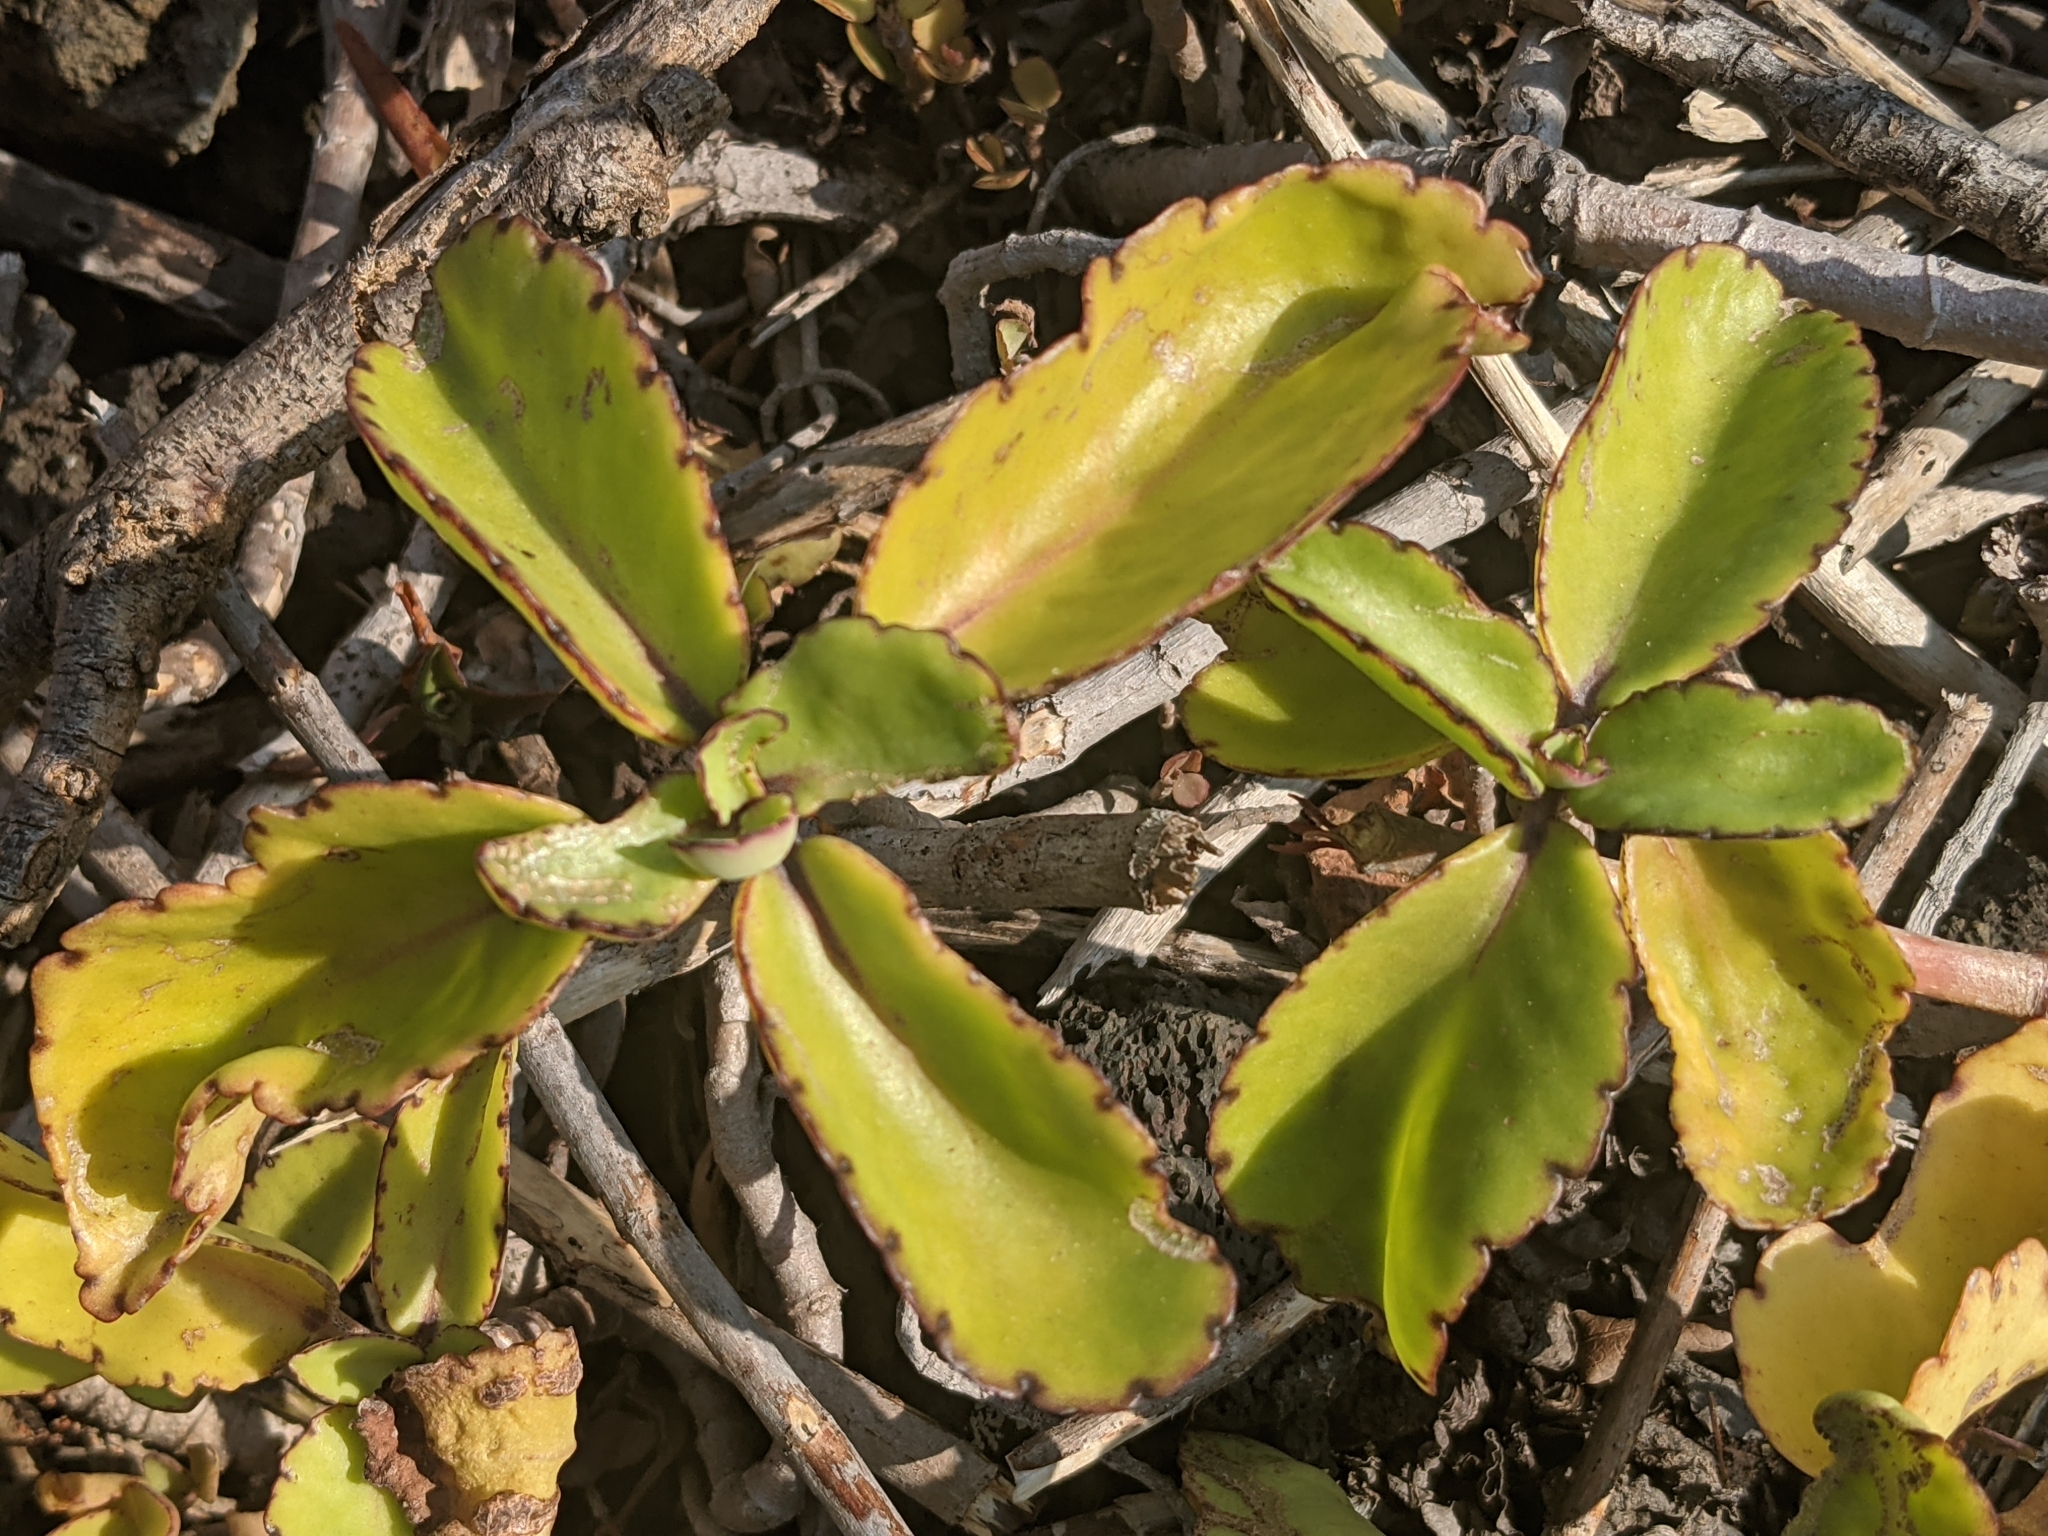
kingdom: Plantae
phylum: Tracheophyta
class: Magnoliopsida
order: Saxifragales
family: Crassulaceae
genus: Kalanchoe
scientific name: Kalanchoe pinnata
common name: Cathedral bells
